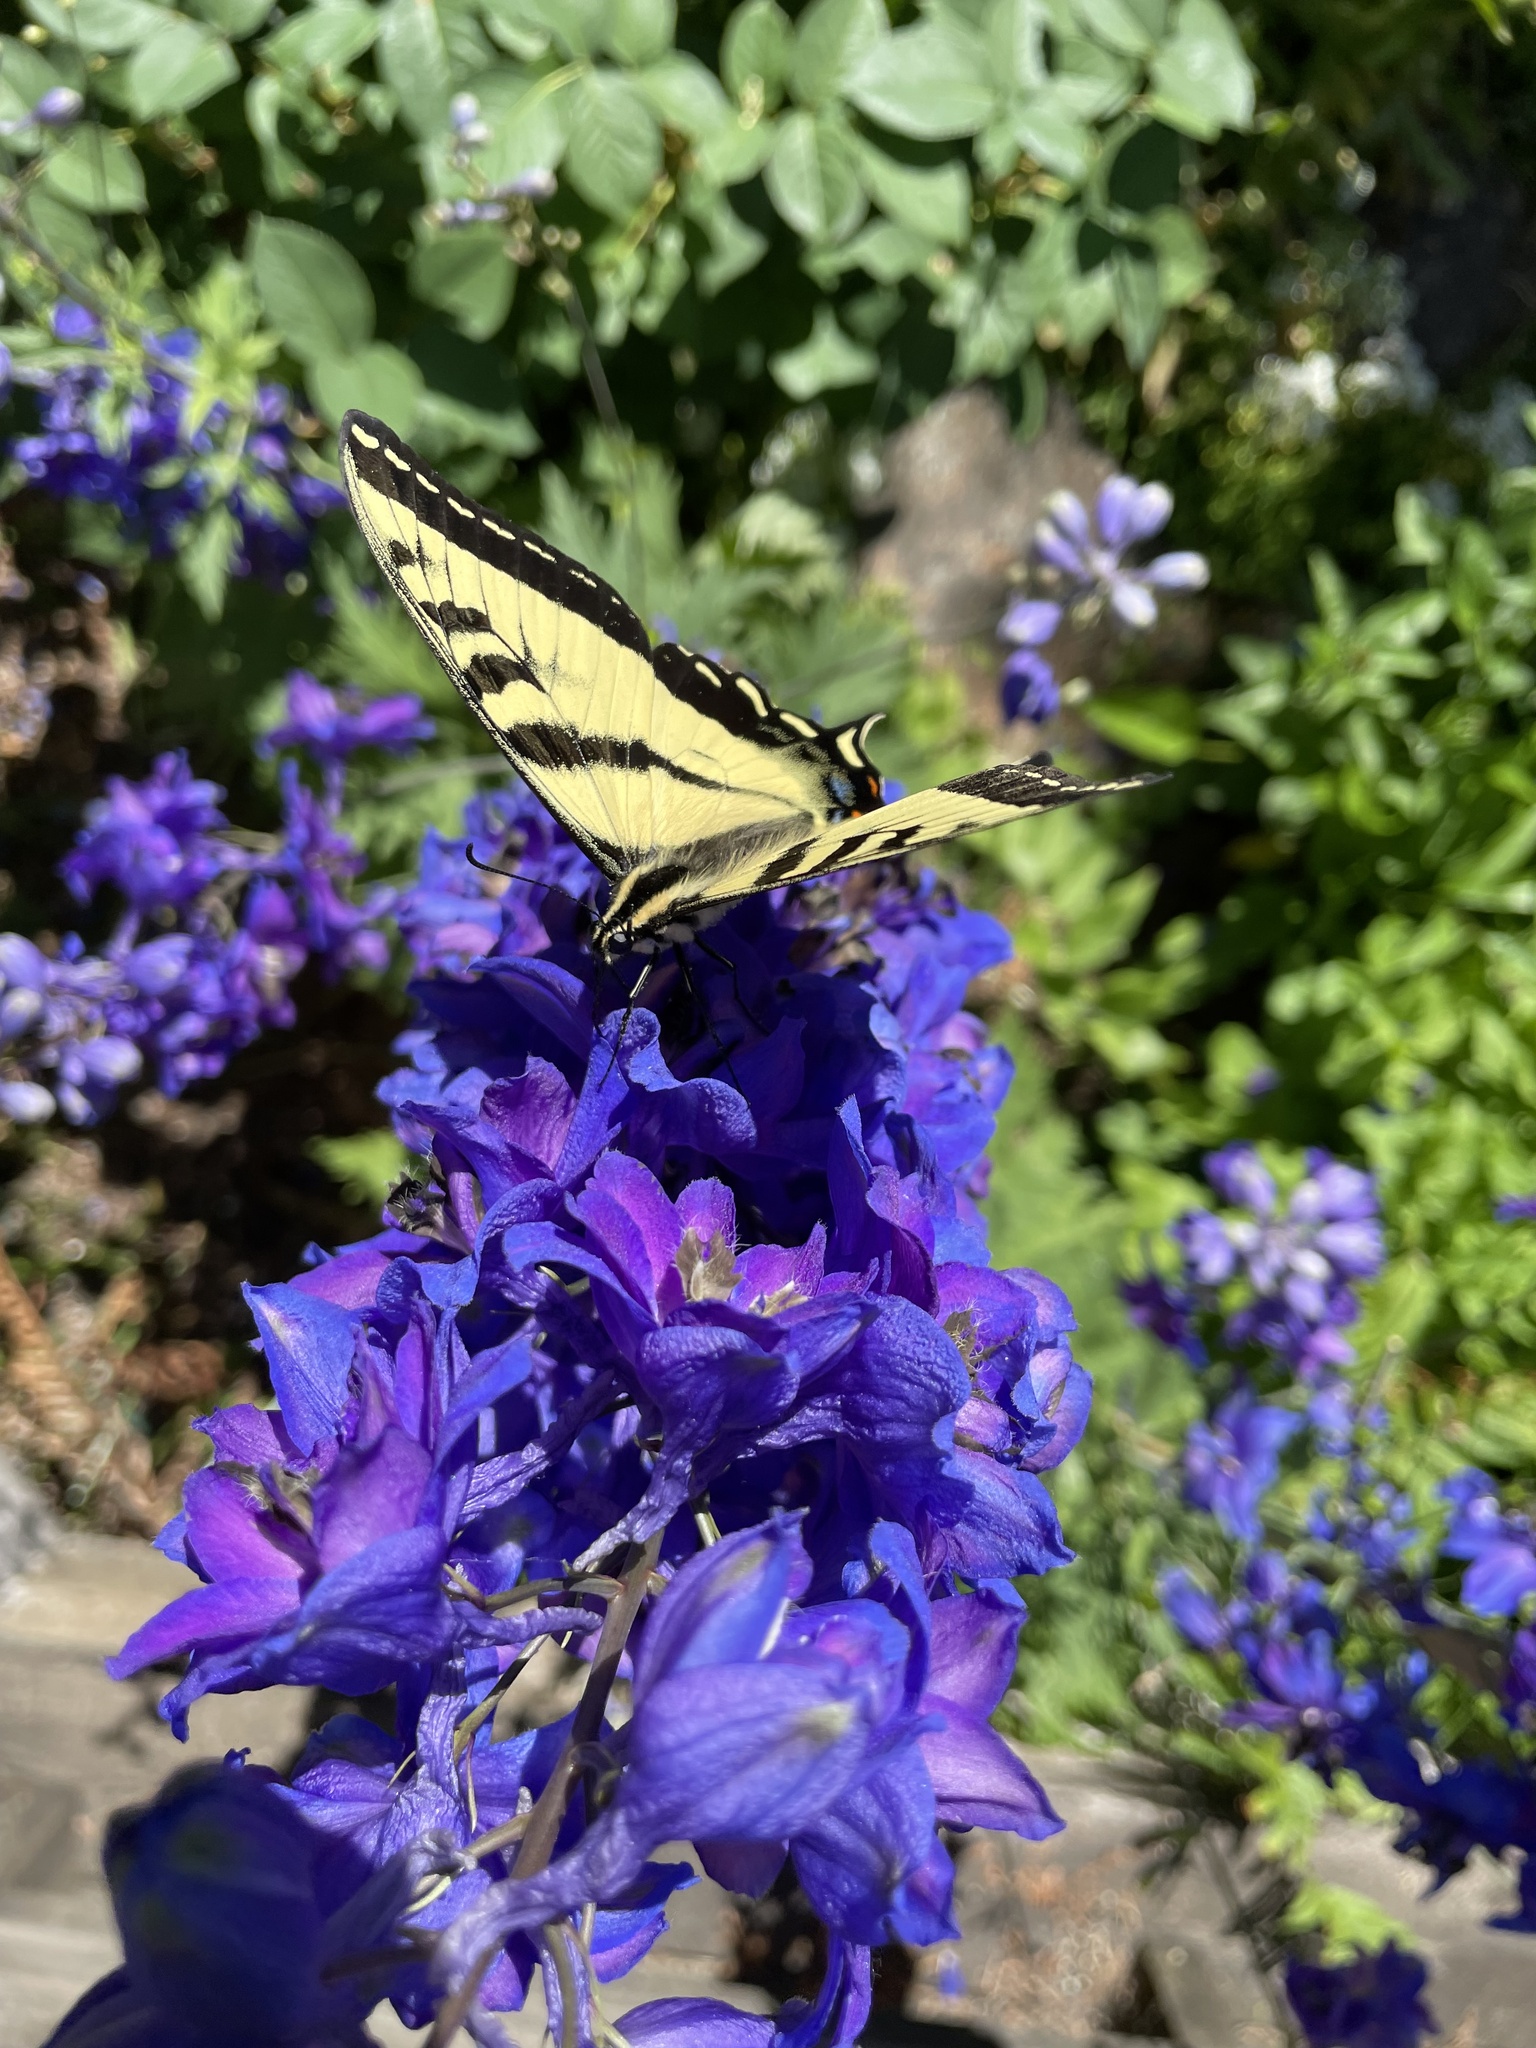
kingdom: Animalia
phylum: Arthropoda
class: Insecta
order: Lepidoptera
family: Papilionidae
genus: Papilio
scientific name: Papilio rutulus
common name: Western tiger swallowtail
